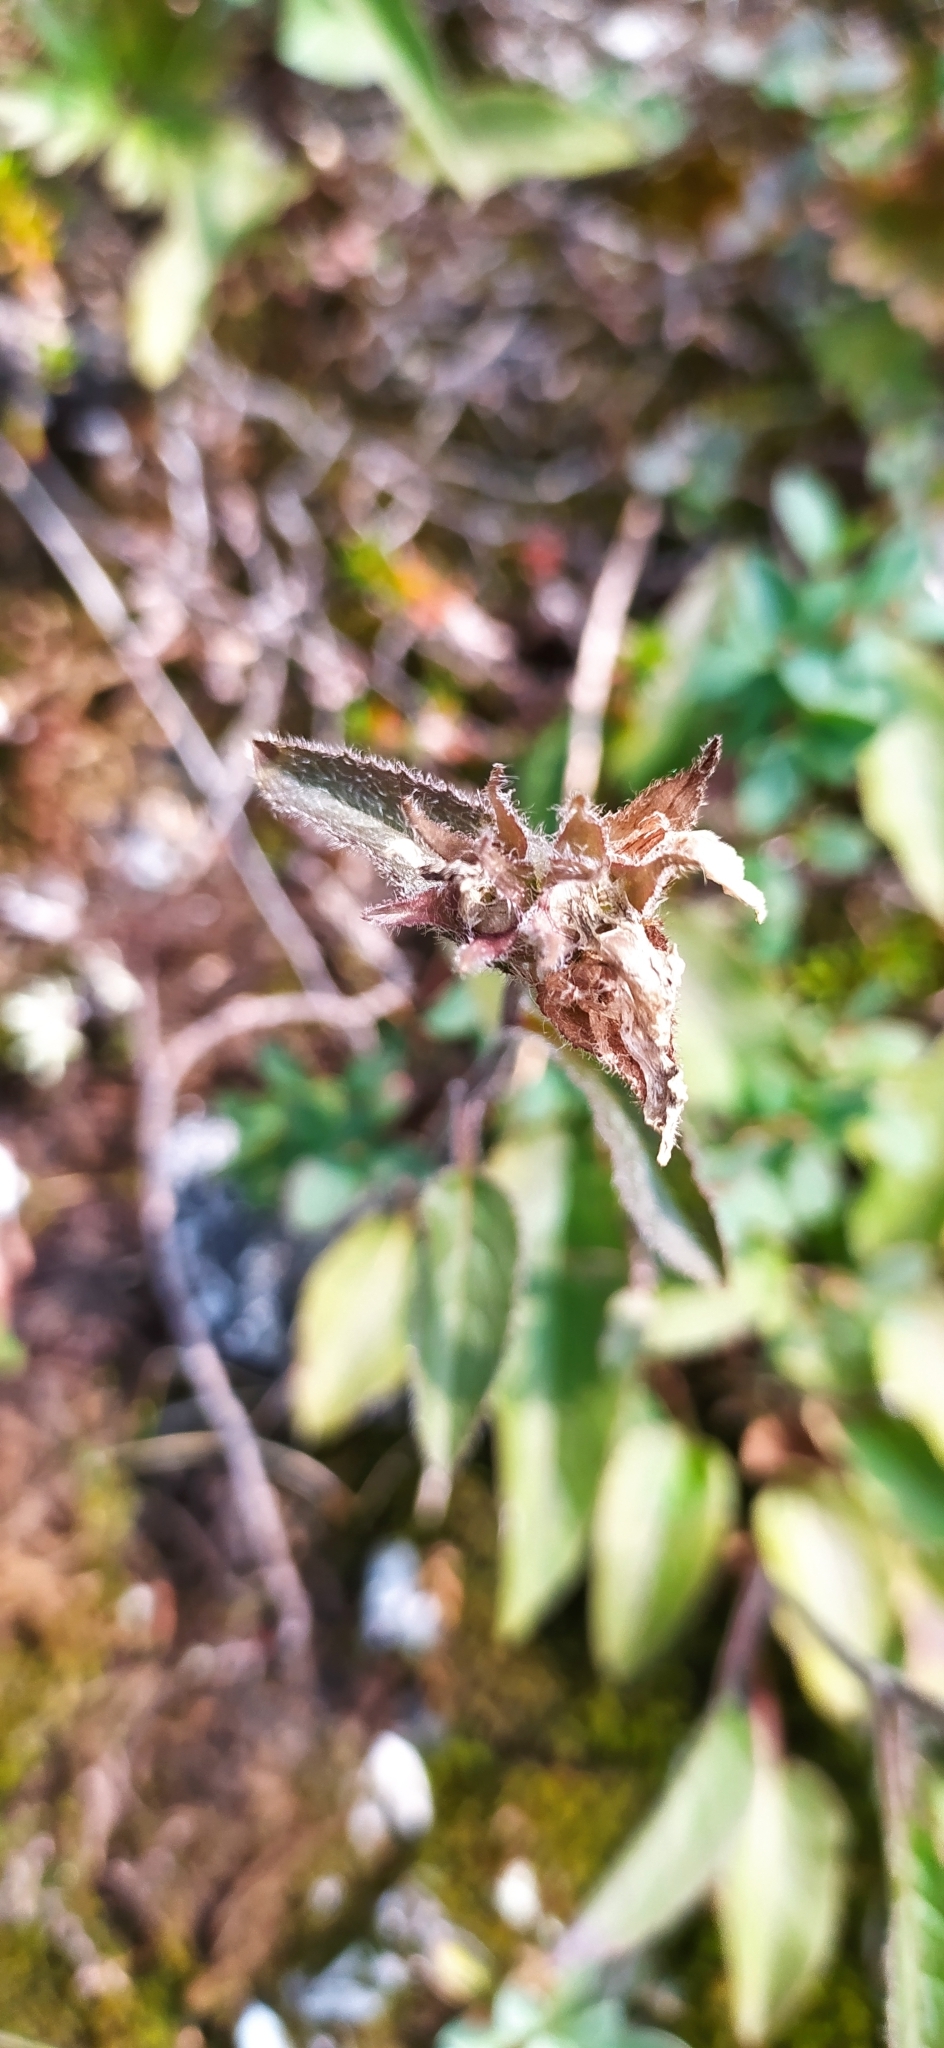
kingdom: Plantae
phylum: Tracheophyta
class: Magnoliopsida
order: Asterales
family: Campanulaceae
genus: Campanula
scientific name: Campanula glomerata
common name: Clustered bellflower
